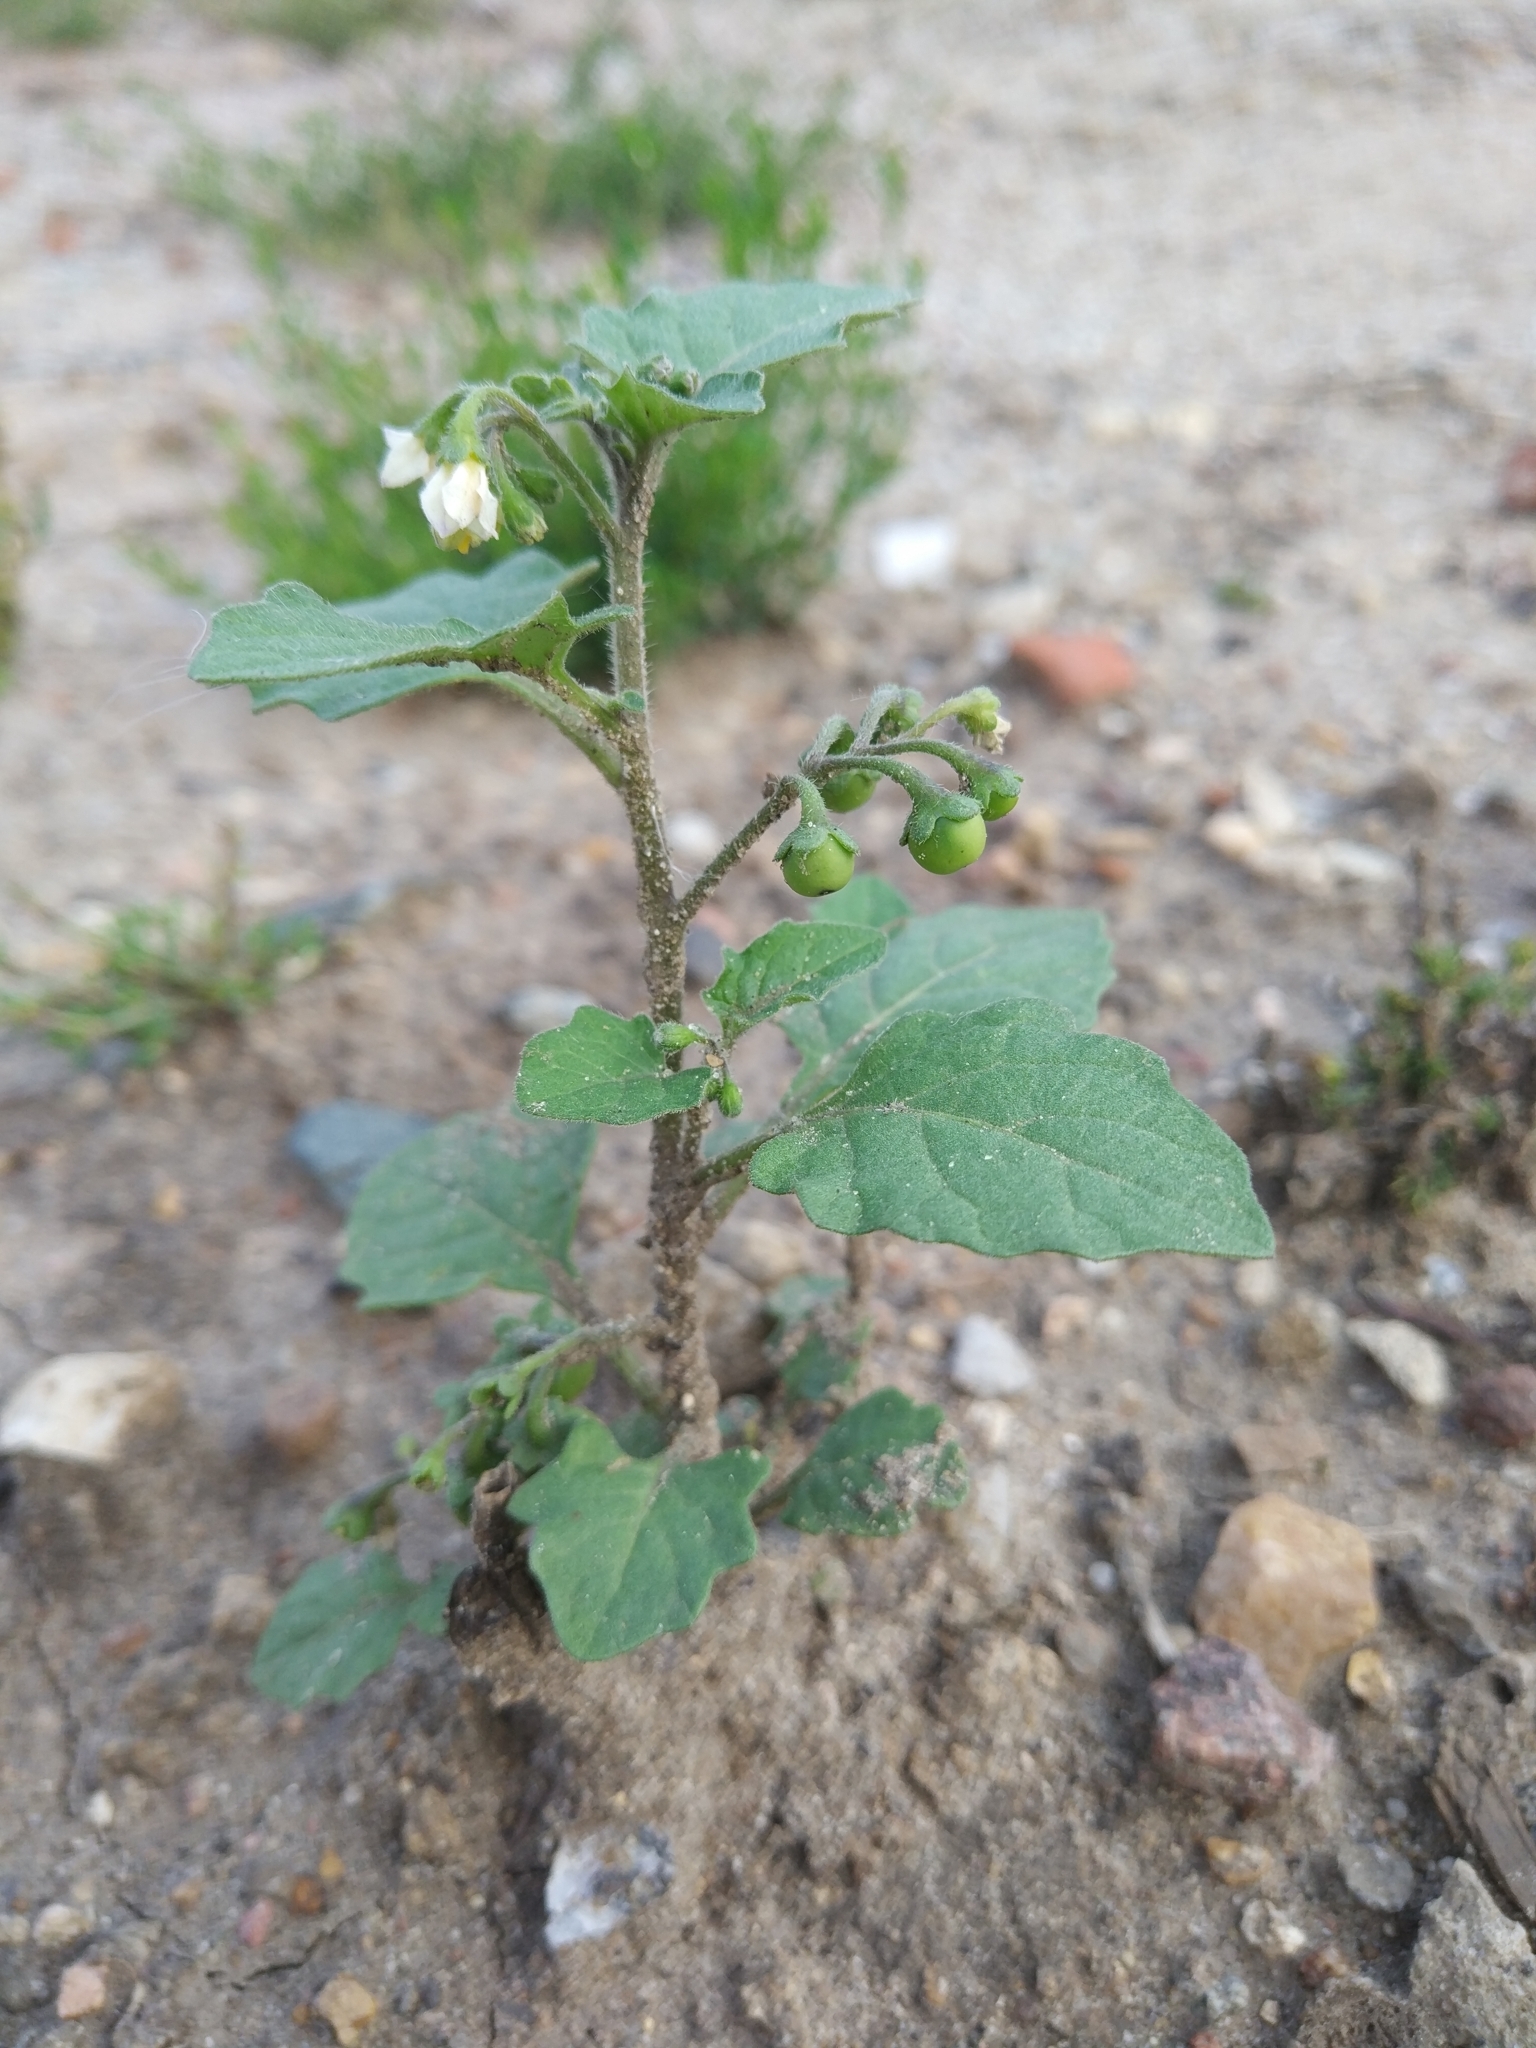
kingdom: Plantae
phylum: Tracheophyta
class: Magnoliopsida
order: Solanales
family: Solanaceae
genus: Solanum
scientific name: Solanum nigrum
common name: Black nightshade
